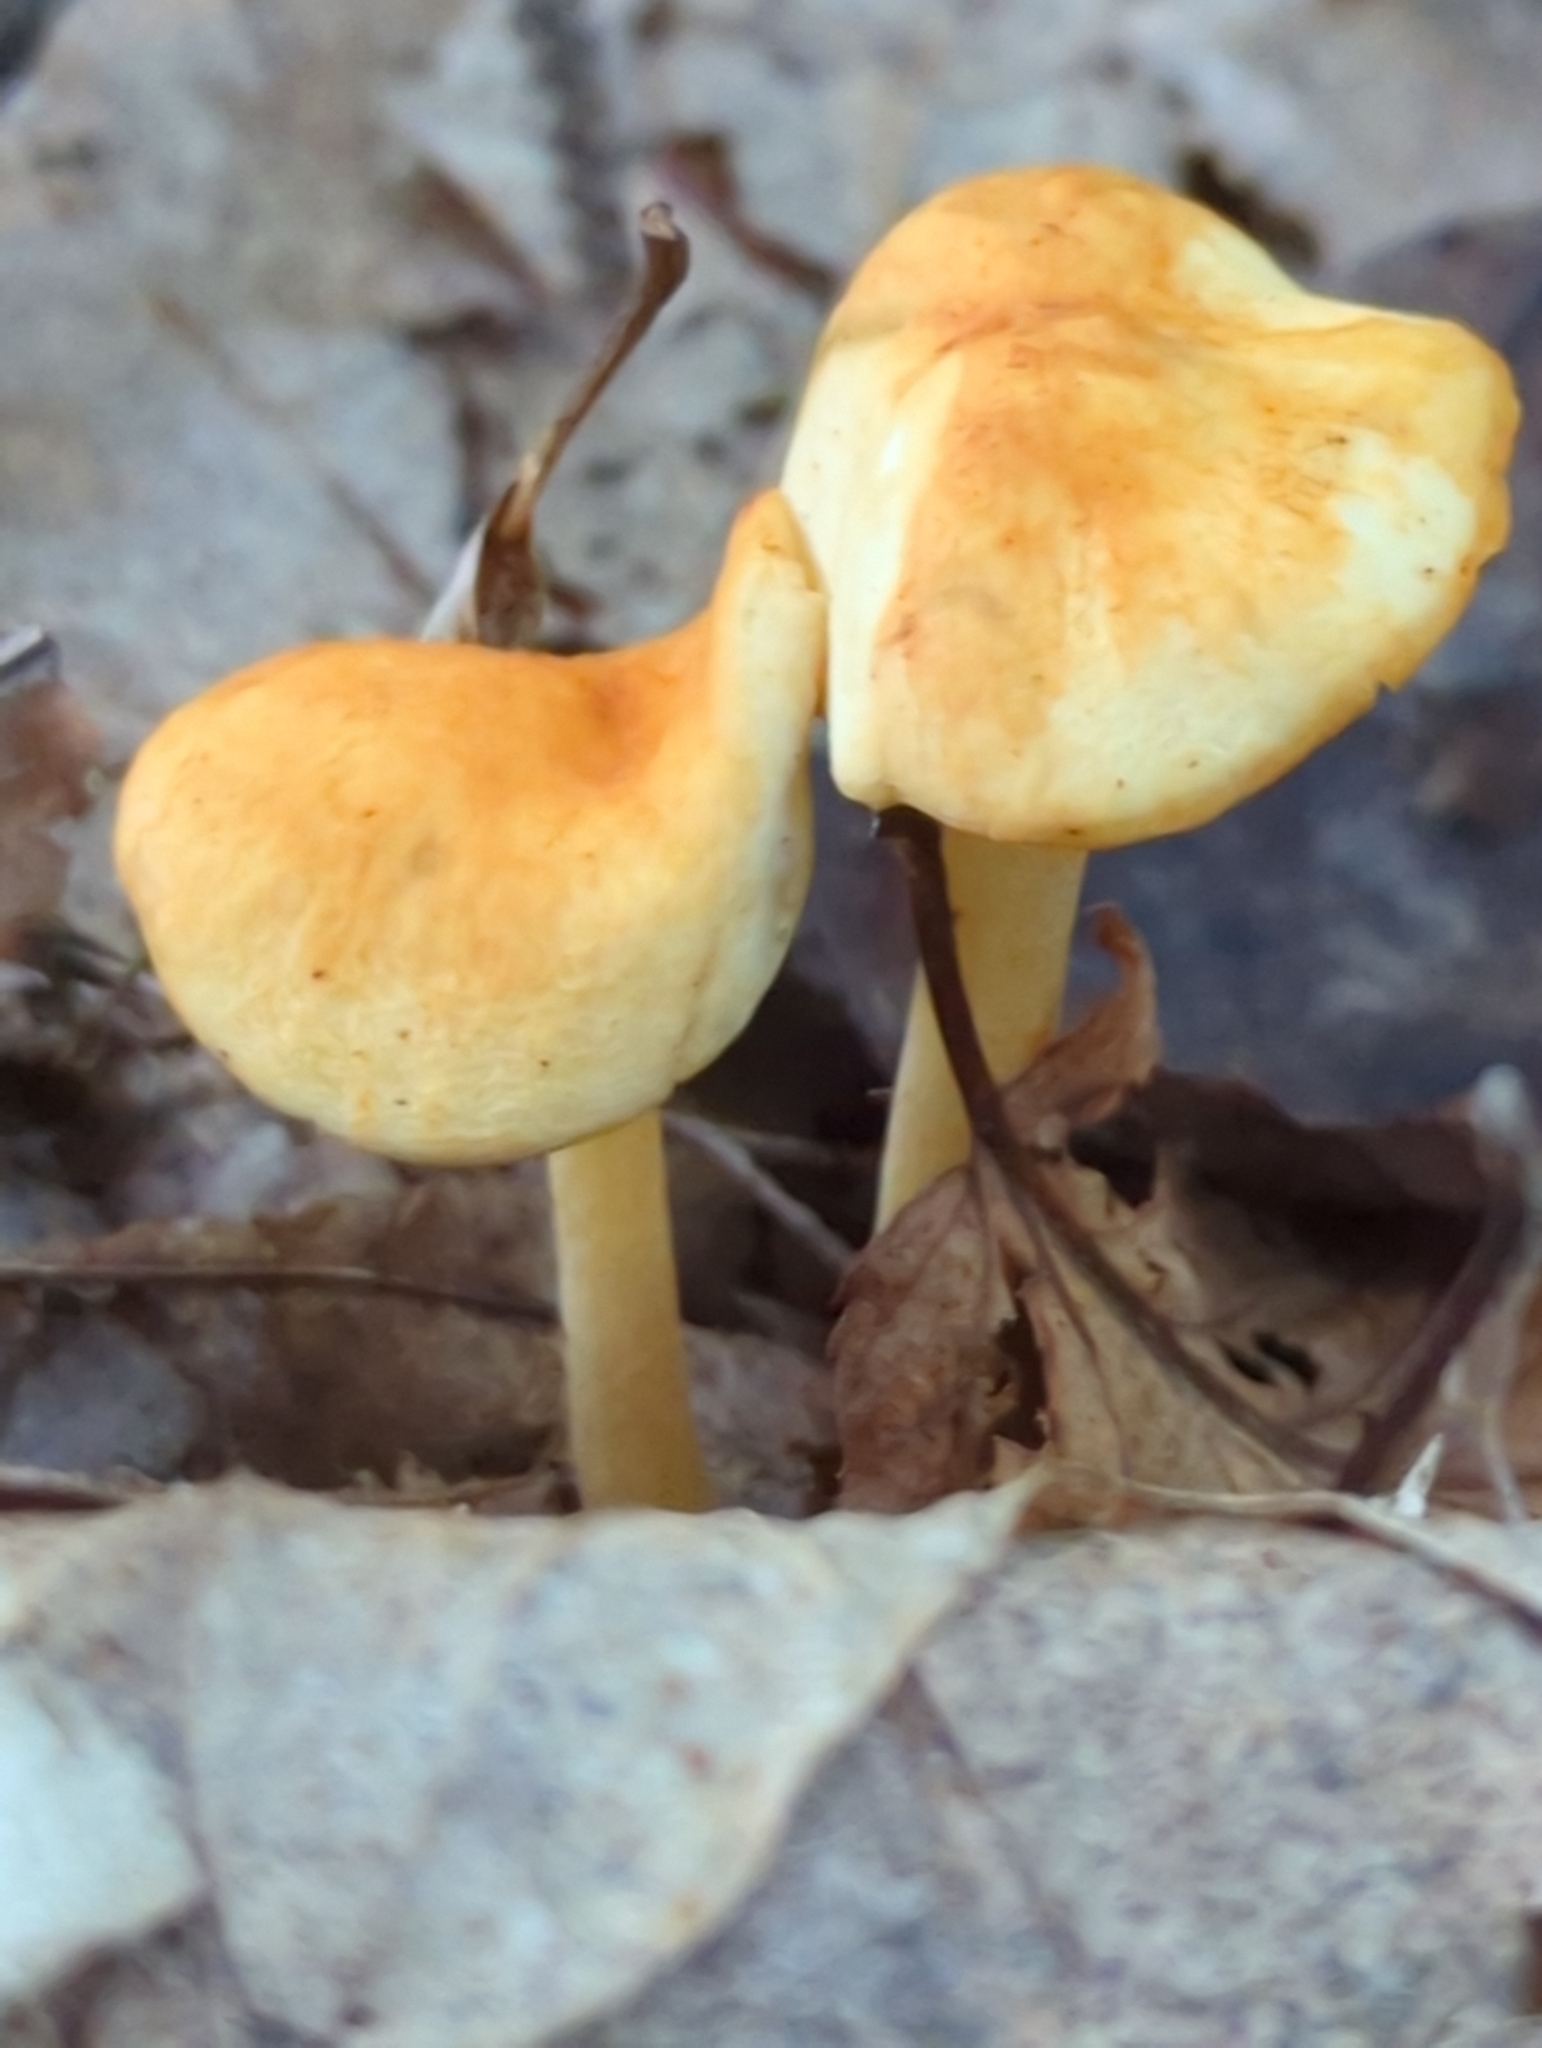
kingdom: Fungi
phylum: Basidiomycota
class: Agaricomycetes
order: Agaricales
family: Marasmiaceae
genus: Marasmius
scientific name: Marasmius strictipes
